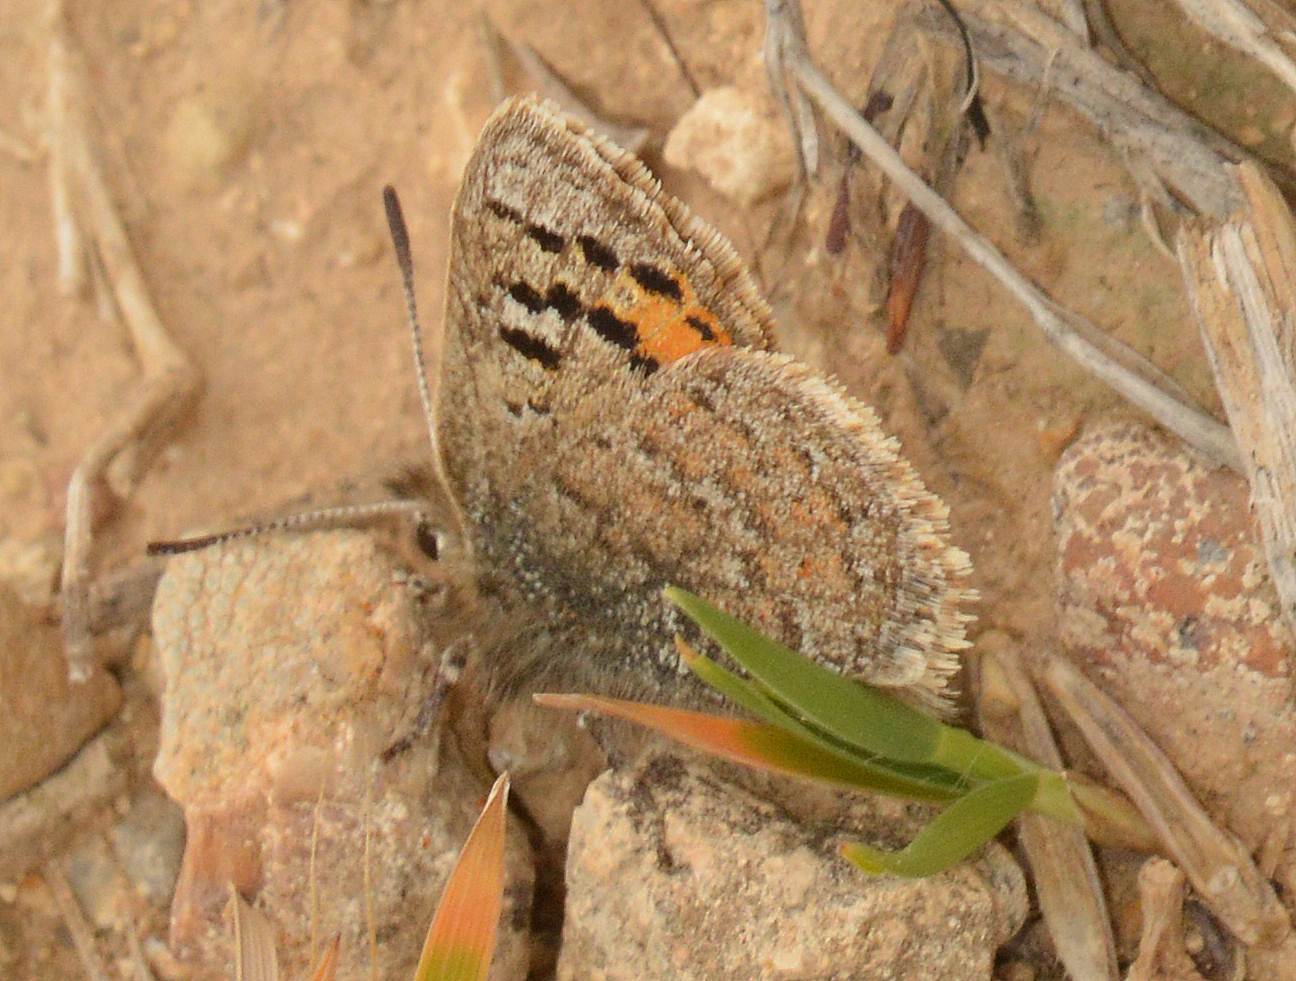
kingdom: Animalia
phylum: Arthropoda
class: Insecta
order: Lepidoptera
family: Lycaenidae
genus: Tomares
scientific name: Tomares mauritanicus
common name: Moroccan hairstreak
